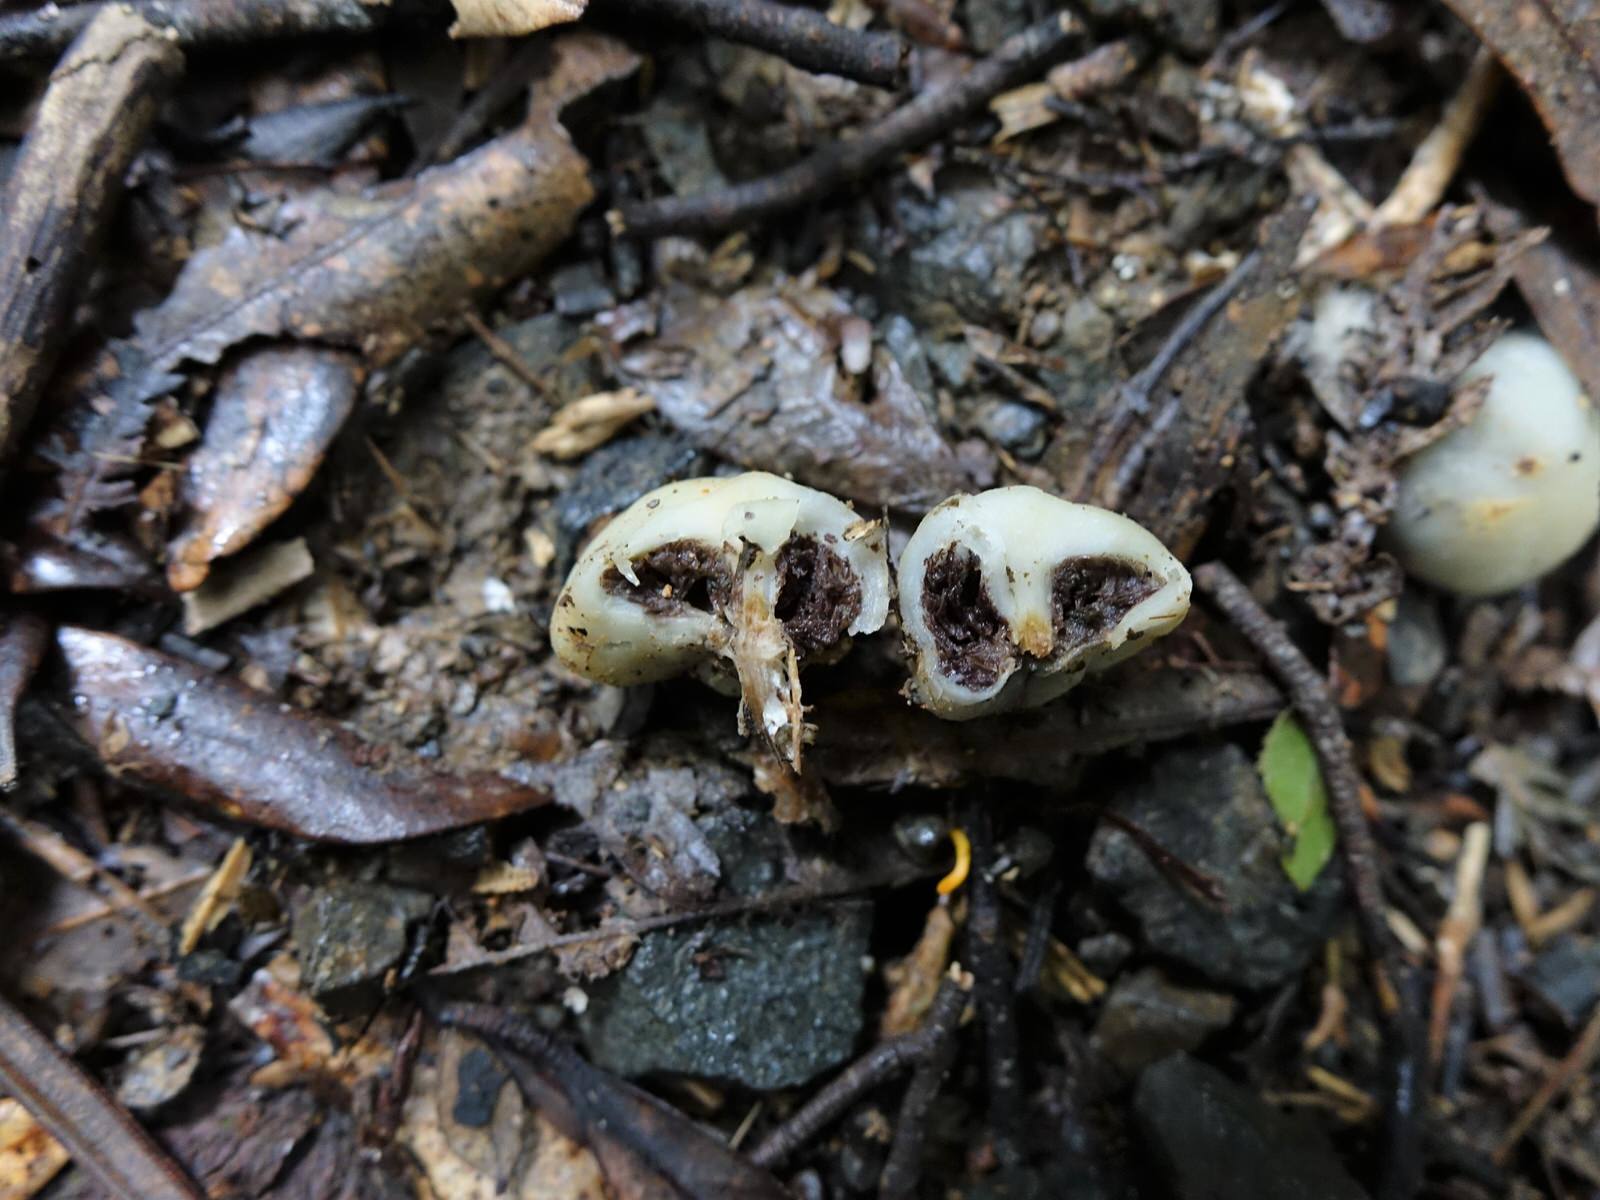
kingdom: Fungi
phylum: Basidiomycota
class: Agaricomycetes
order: Agaricales
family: Hymenogastraceae
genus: Psilocybe
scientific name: Psilocybe weraroa
